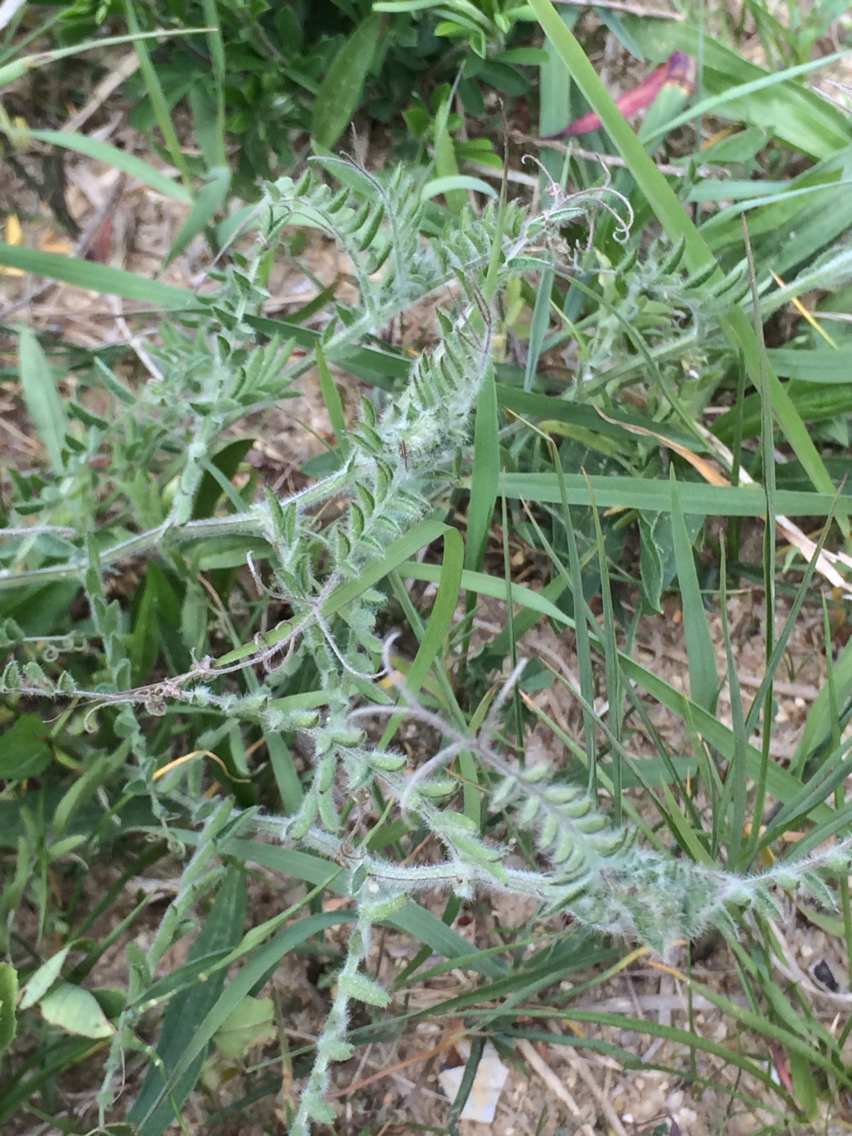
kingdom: Plantae
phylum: Tracheophyta
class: Magnoliopsida
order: Fabales
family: Fabaceae
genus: Vicia
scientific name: Vicia villosa
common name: Fodder vetch
